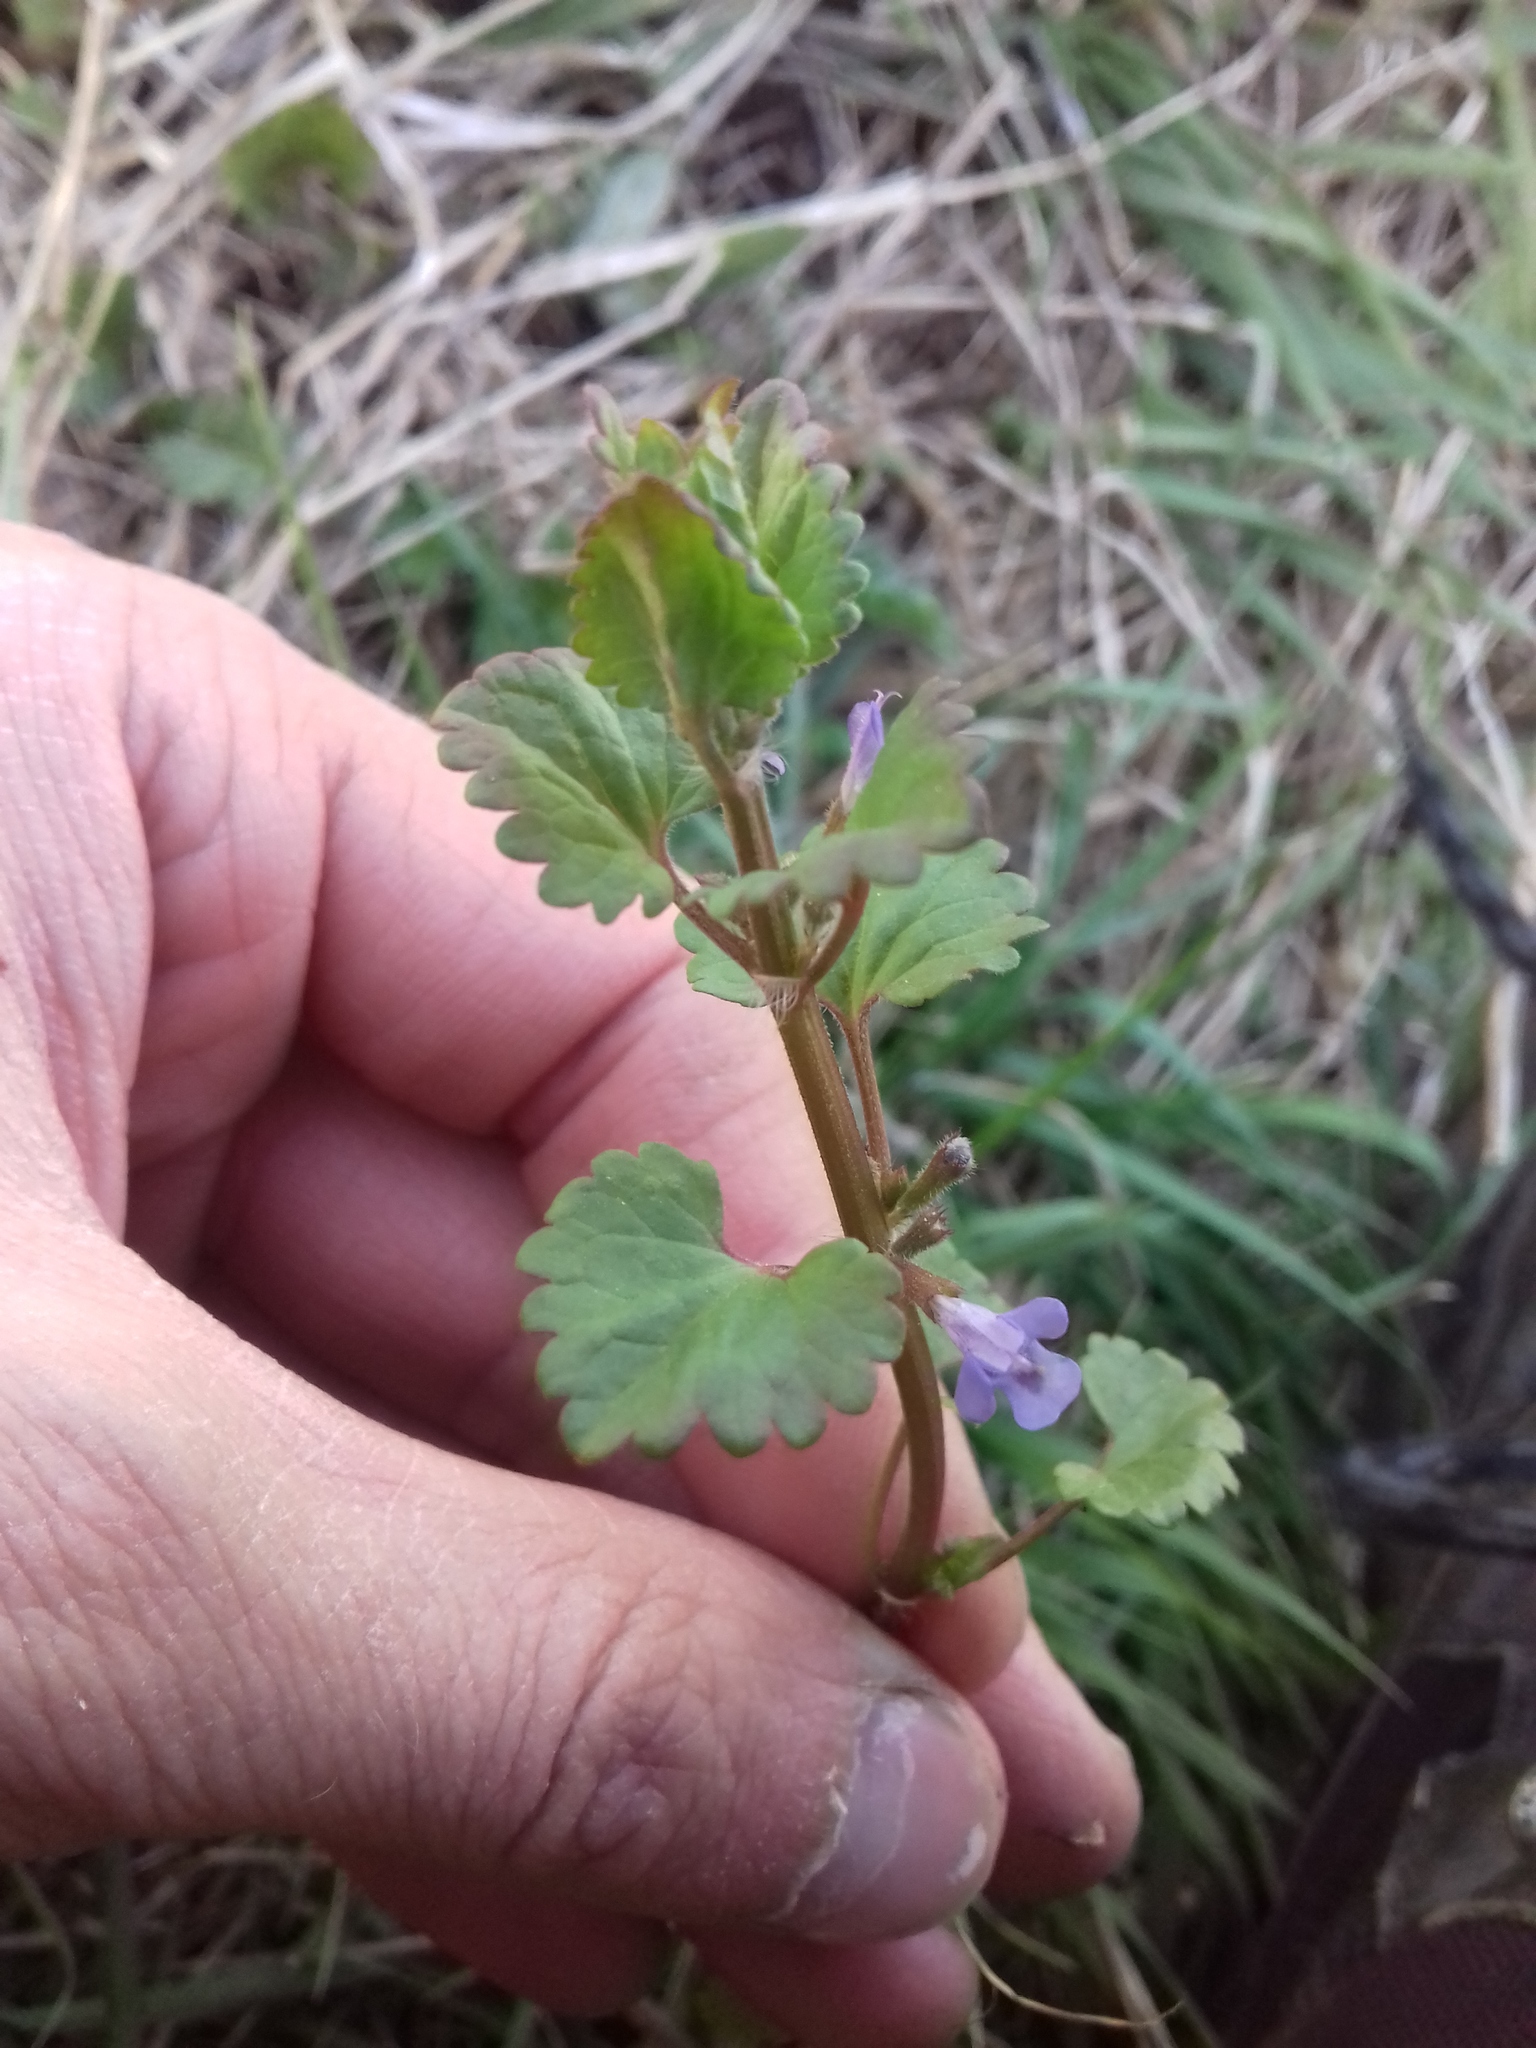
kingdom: Plantae
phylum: Tracheophyta
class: Magnoliopsida
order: Lamiales
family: Lamiaceae
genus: Glechoma
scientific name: Glechoma hederacea
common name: Ground ivy
